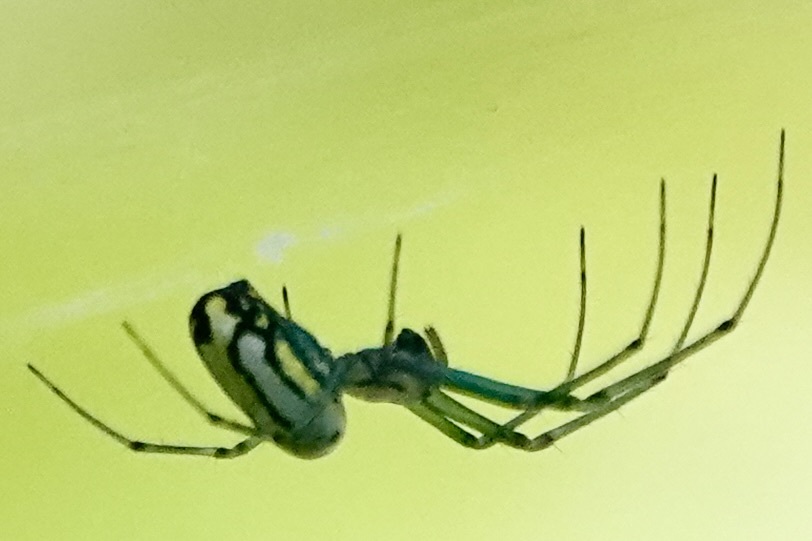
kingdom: Animalia
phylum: Arthropoda
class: Arachnida
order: Araneae
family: Tetragnathidae
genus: Leucauge
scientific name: Leucauge venusta
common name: Longjawed orb weavers
